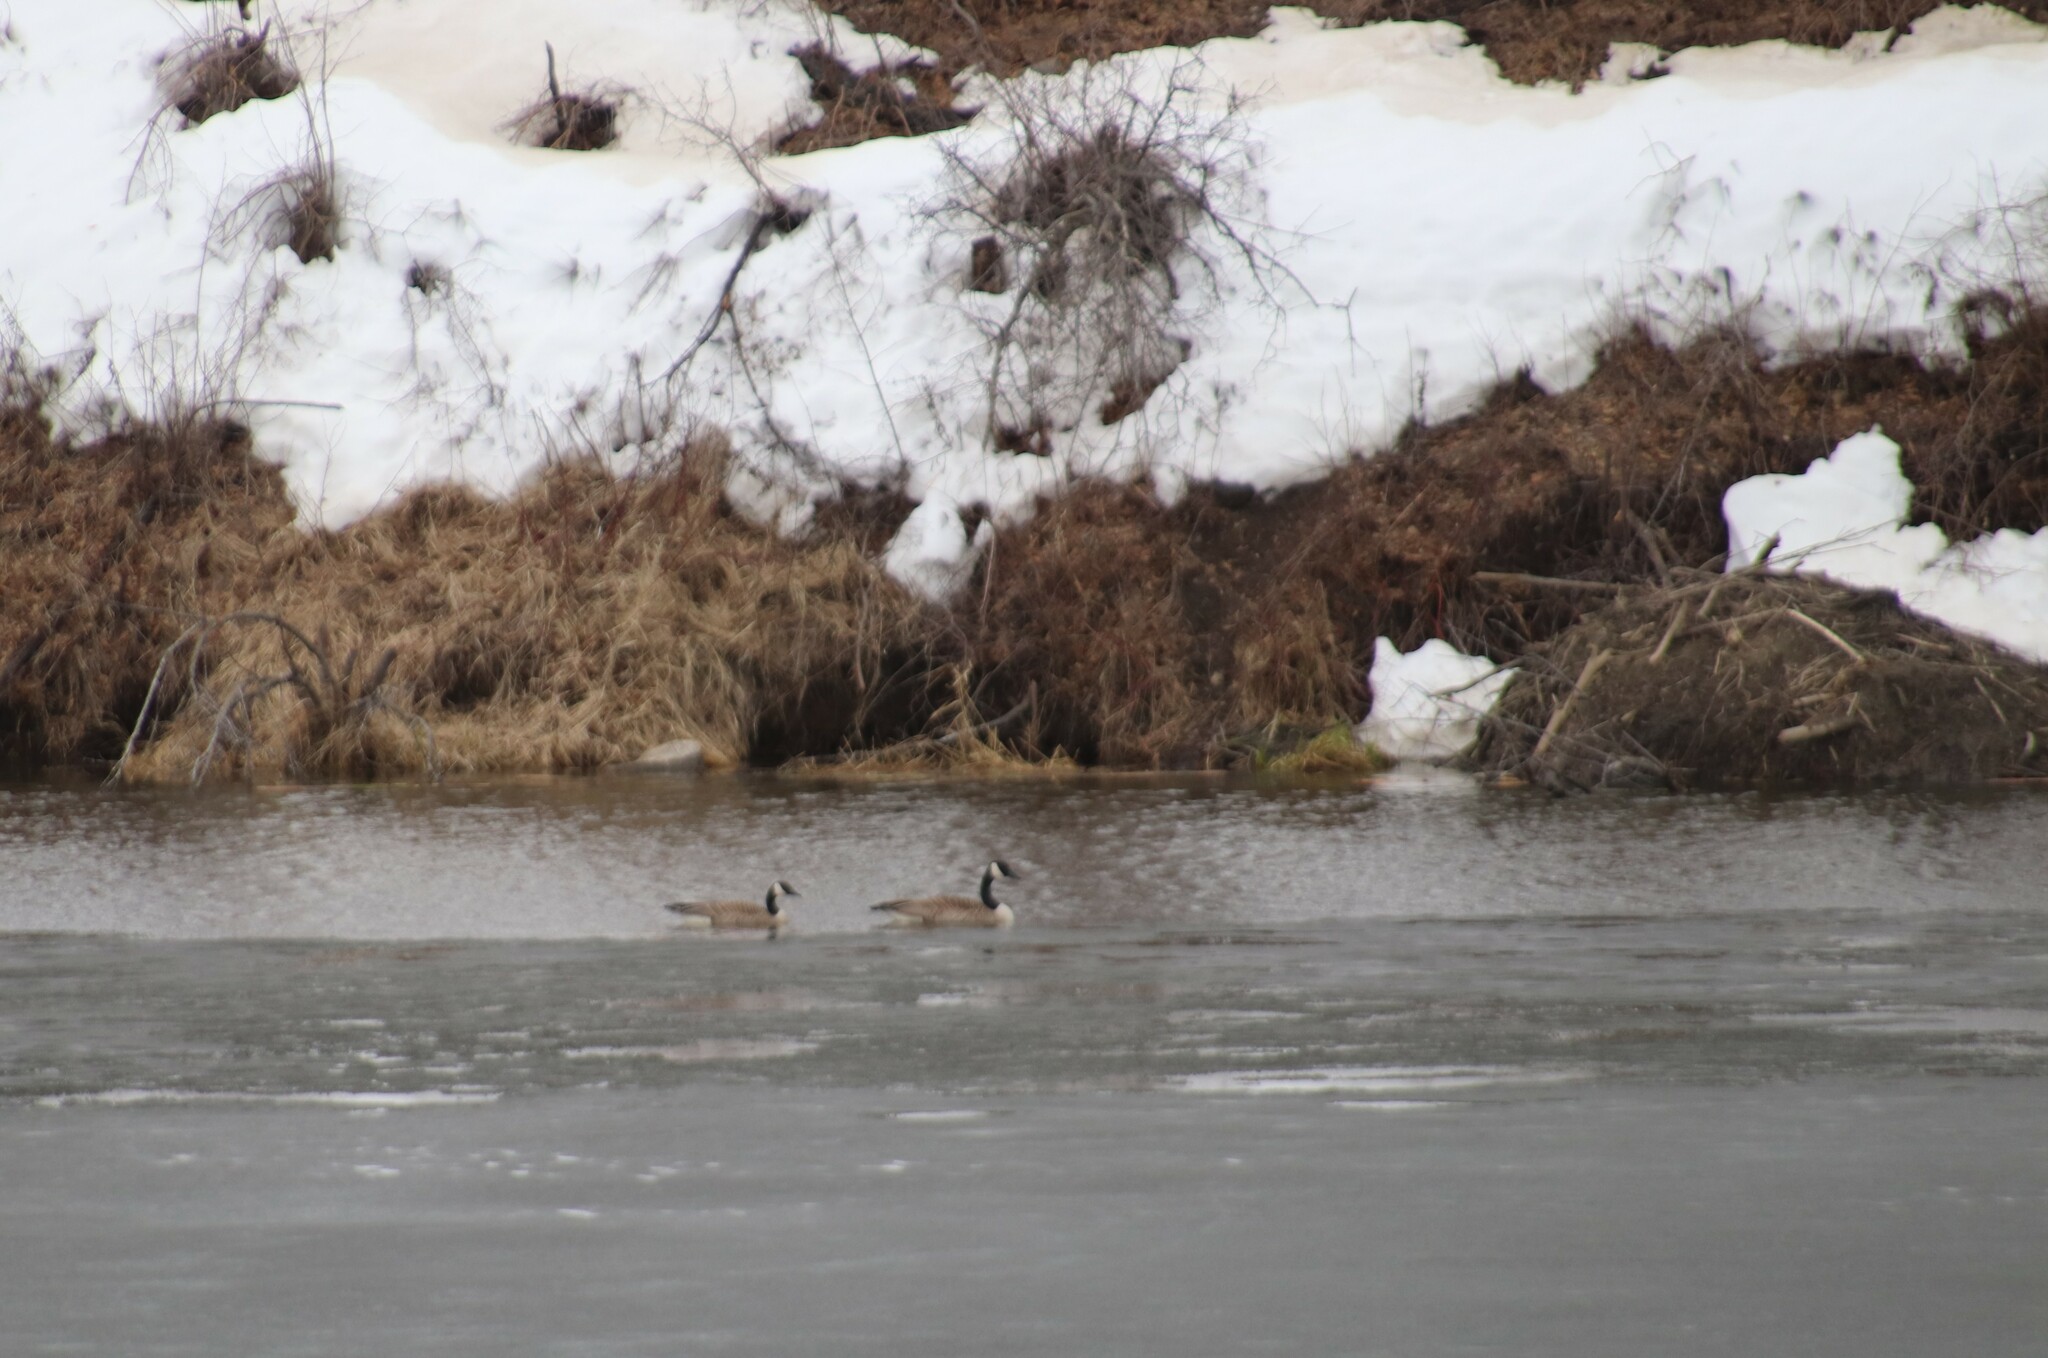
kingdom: Animalia
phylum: Chordata
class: Aves
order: Anseriformes
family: Anatidae
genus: Branta
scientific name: Branta canadensis
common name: Canada goose
